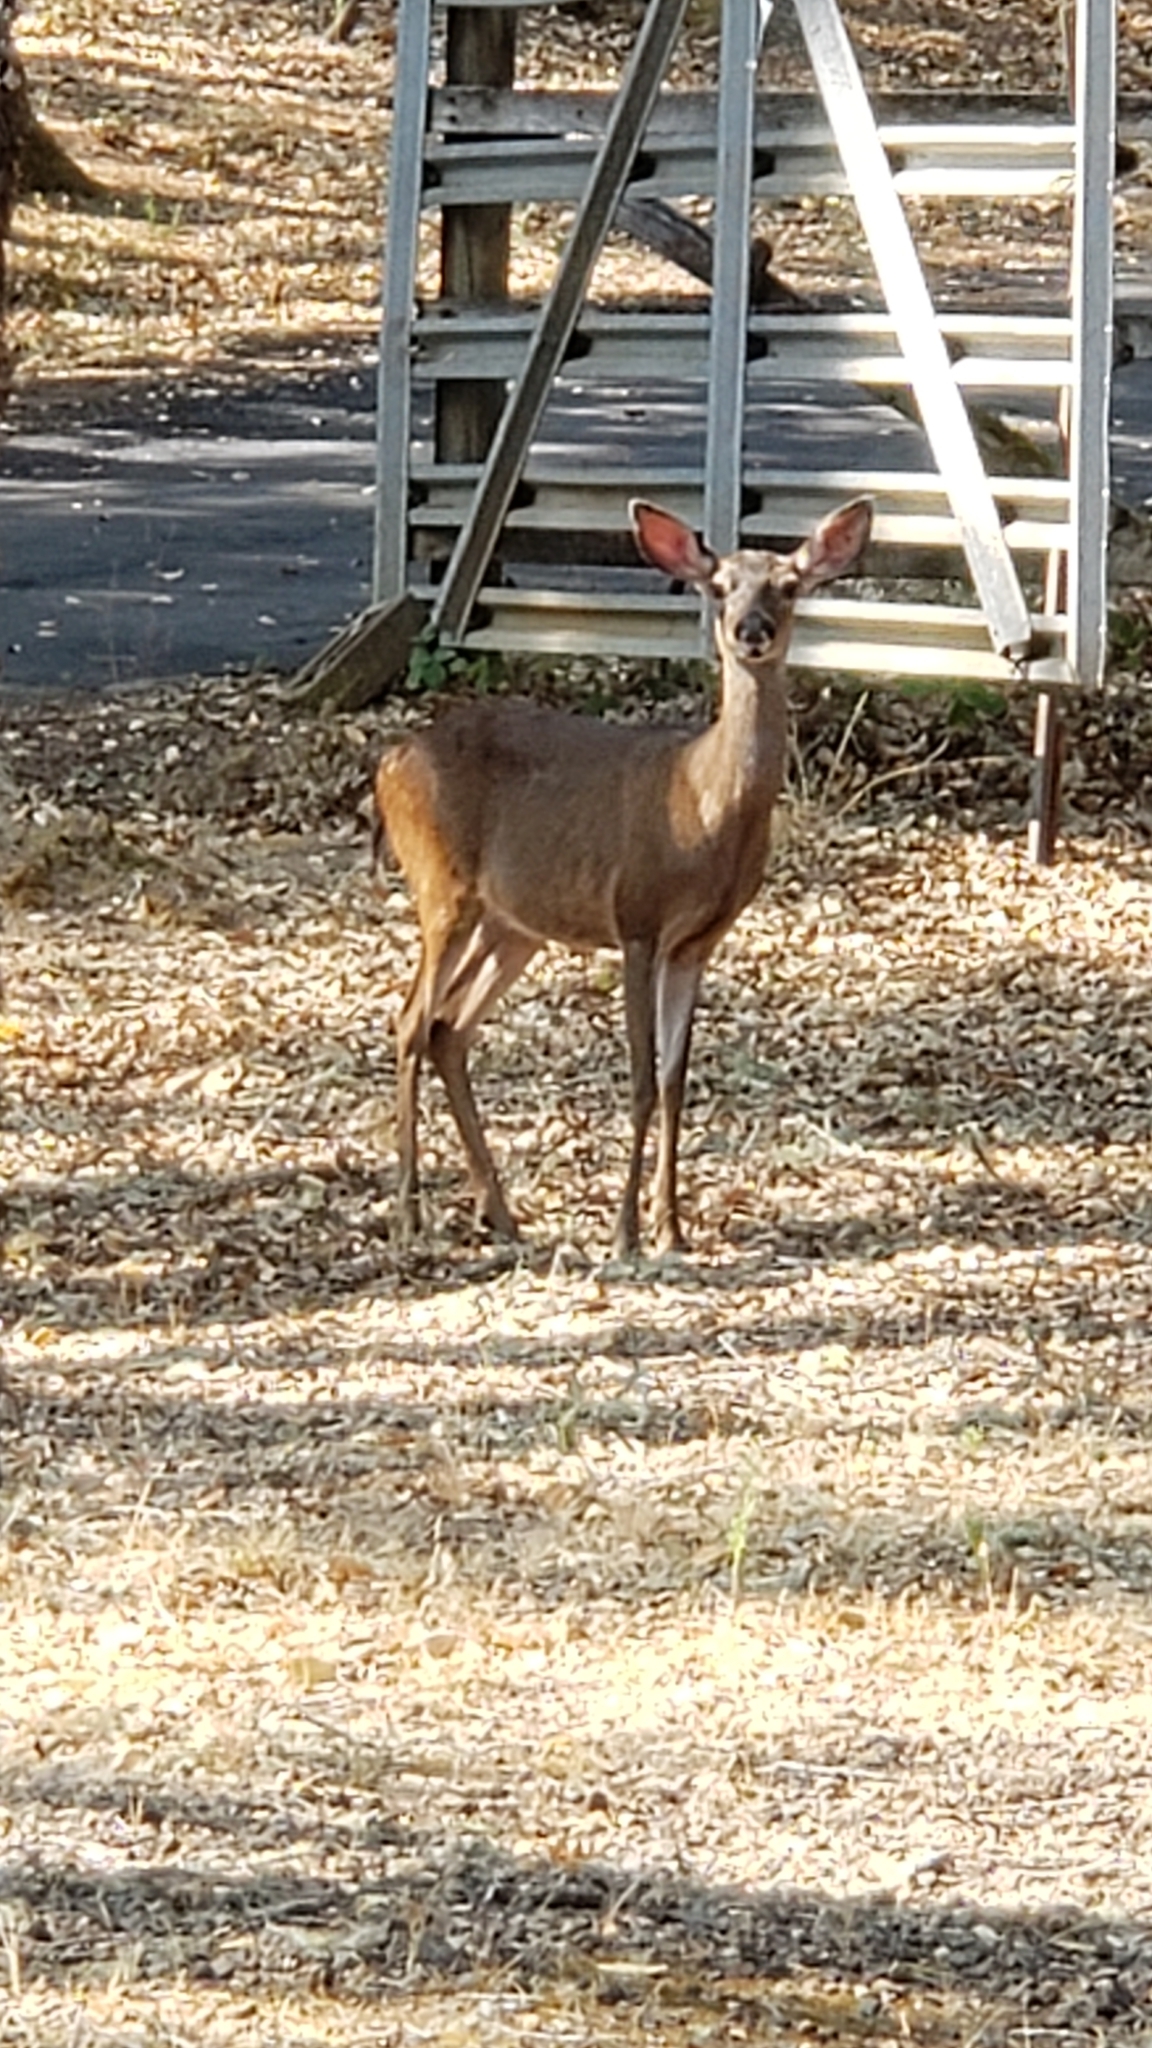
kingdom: Animalia
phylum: Chordata
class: Mammalia
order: Artiodactyla
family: Cervidae
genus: Odocoileus
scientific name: Odocoileus hemionus
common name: Mule deer
